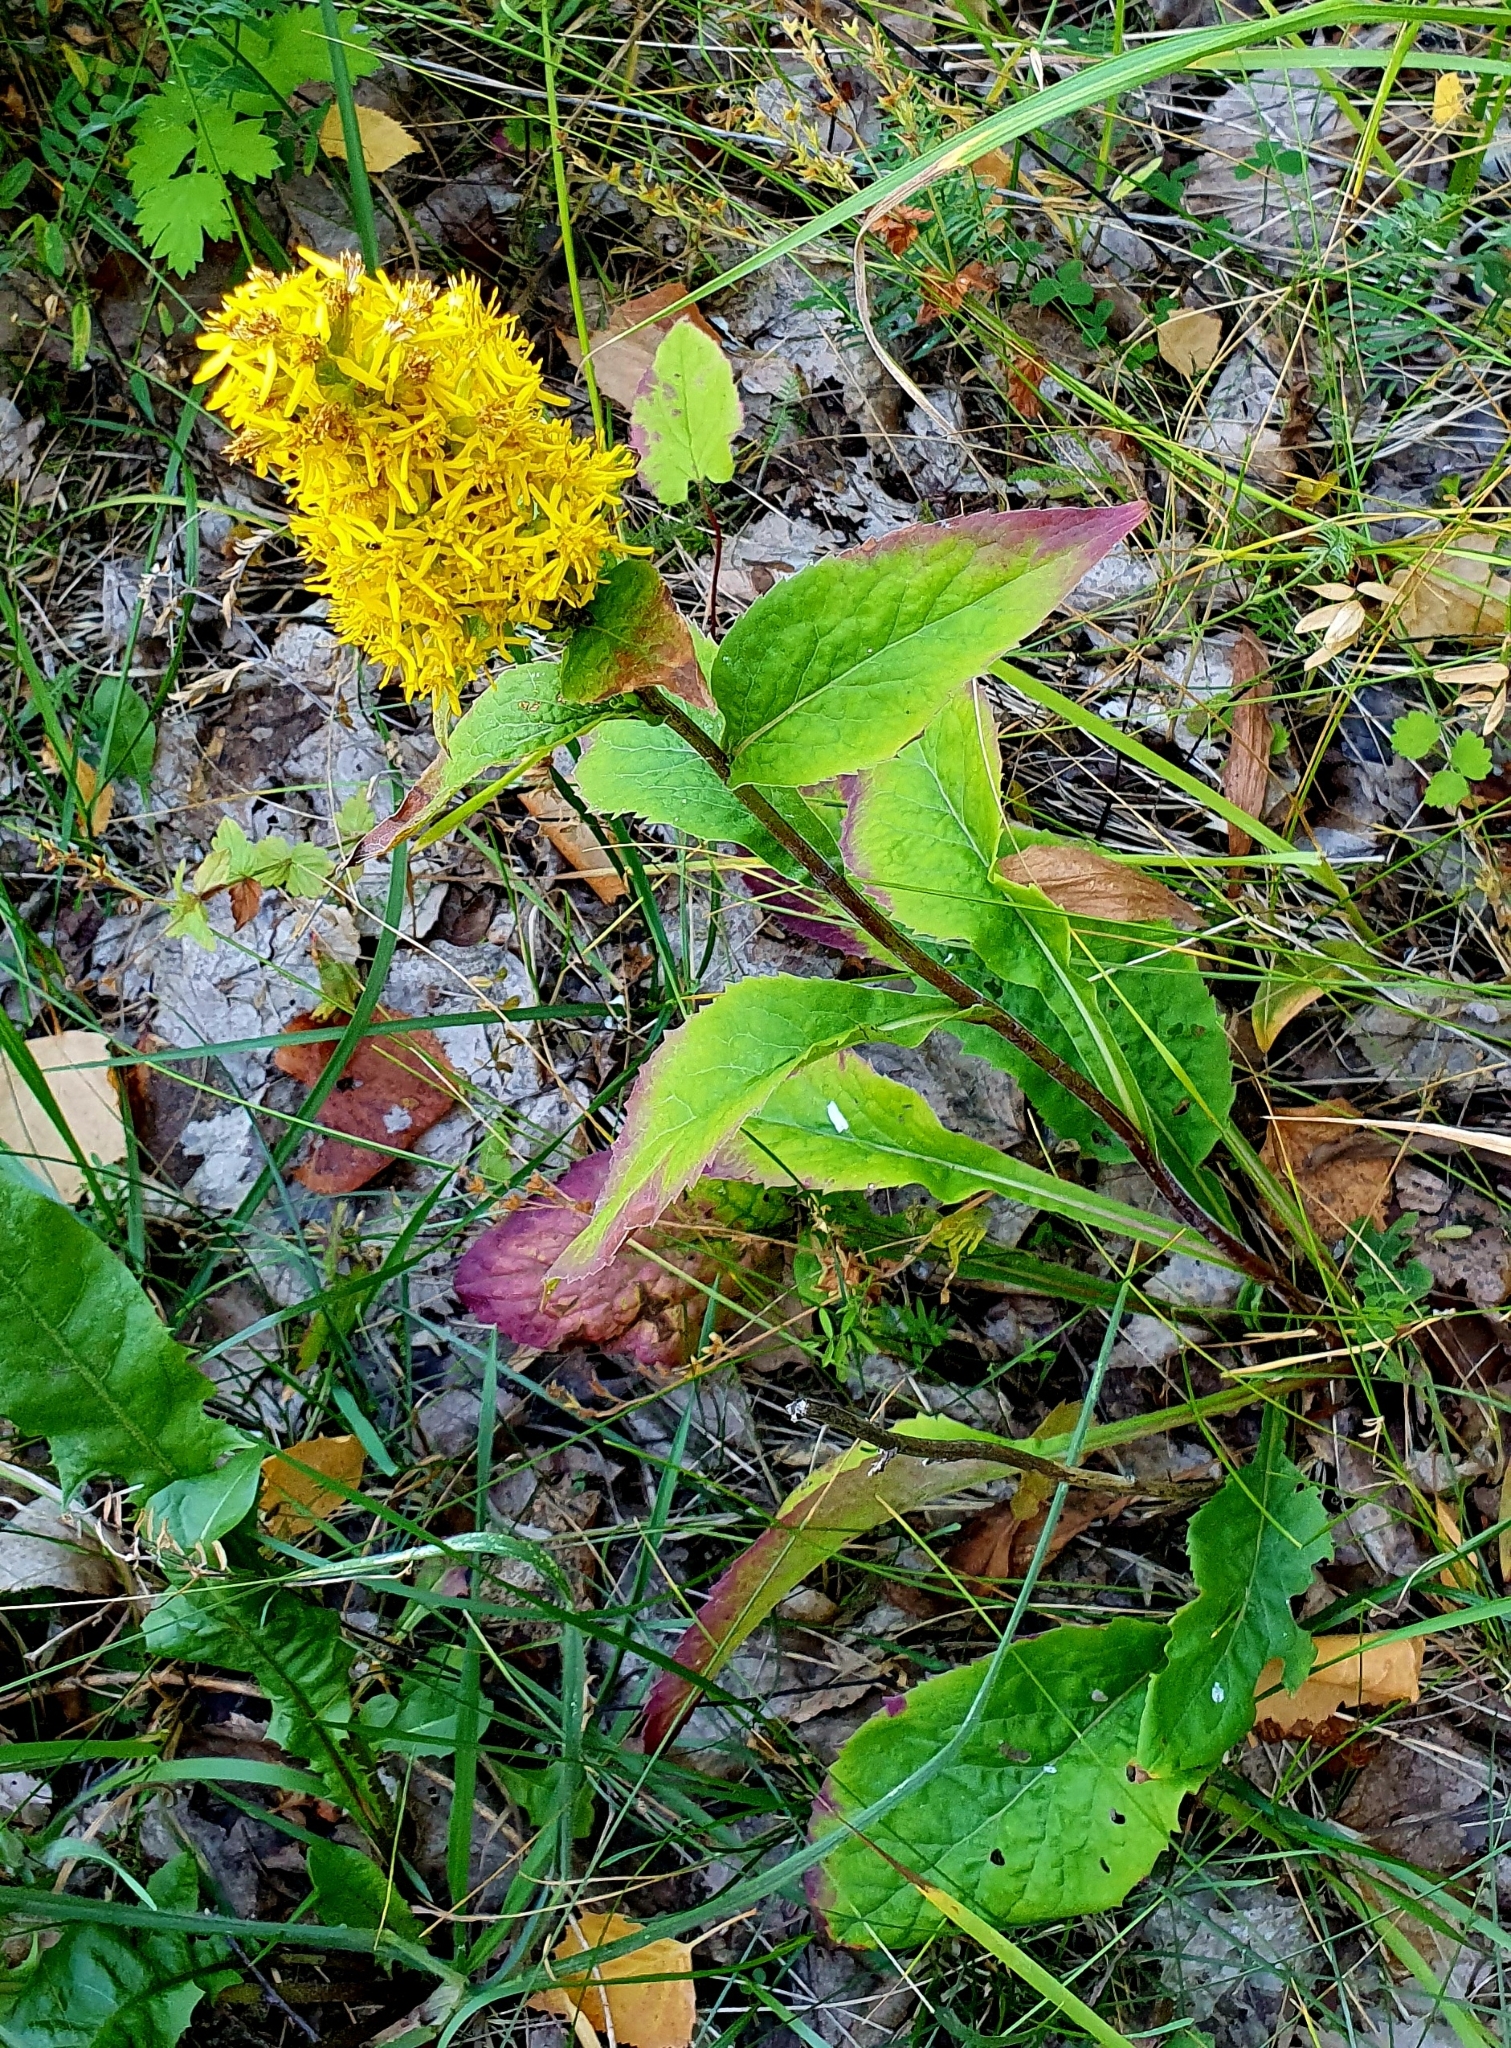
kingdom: Plantae
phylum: Tracheophyta
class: Magnoliopsida
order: Asterales
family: Asteraceae
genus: Solidago
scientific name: Solidago virgaurea
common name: Goldenrod
